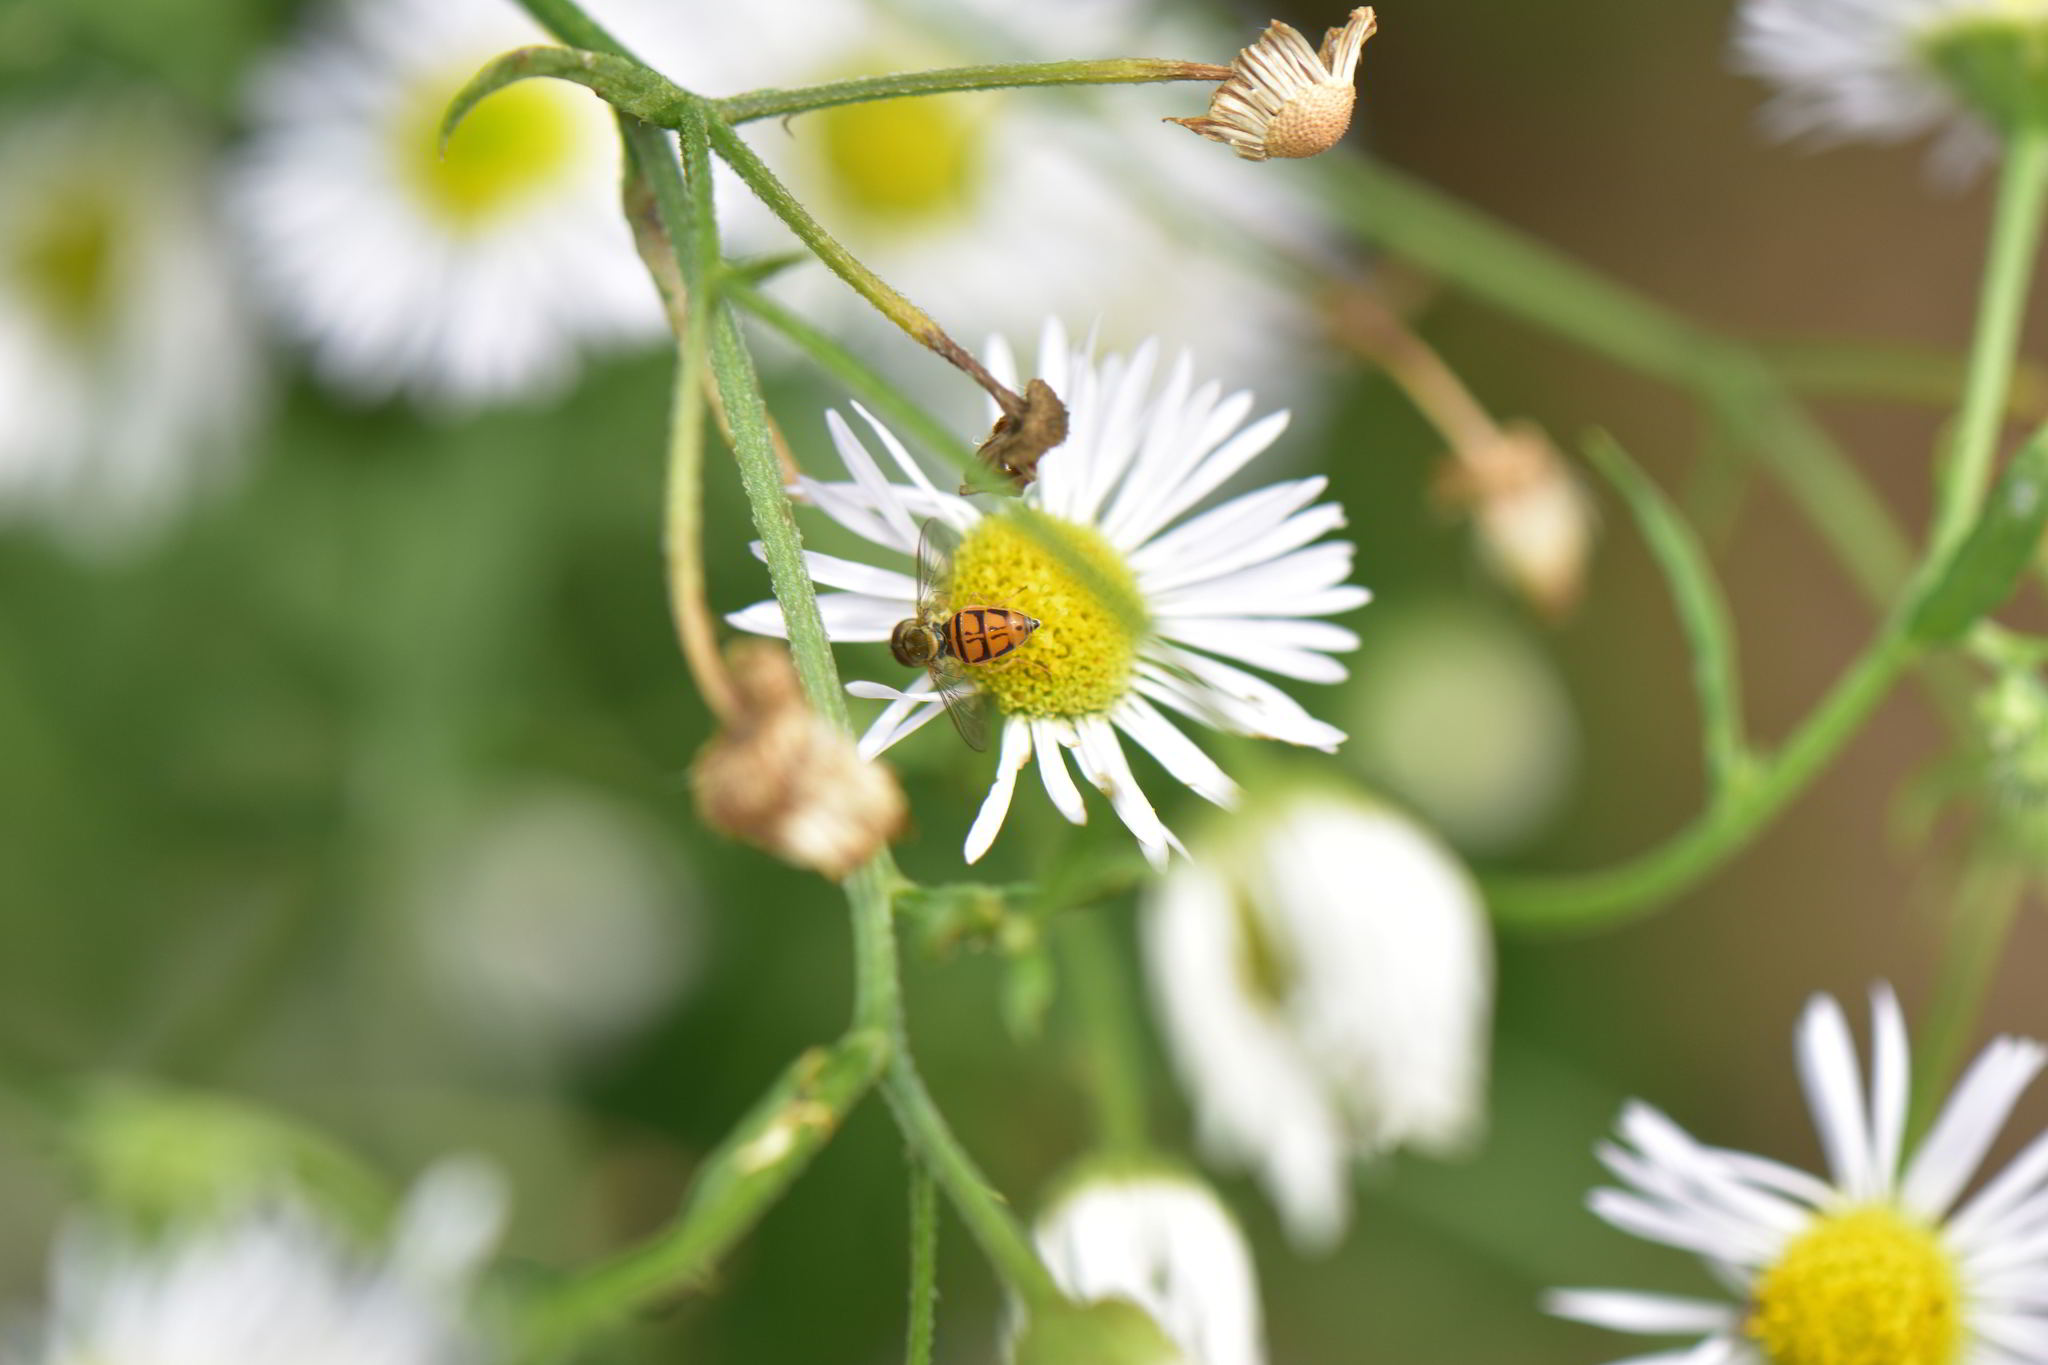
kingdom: Animalia
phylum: Arthropoda
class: Insecta
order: Diptera
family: Syrphidae
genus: Toxomerus
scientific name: Toxomerus marginatus
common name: Syrphid fly
